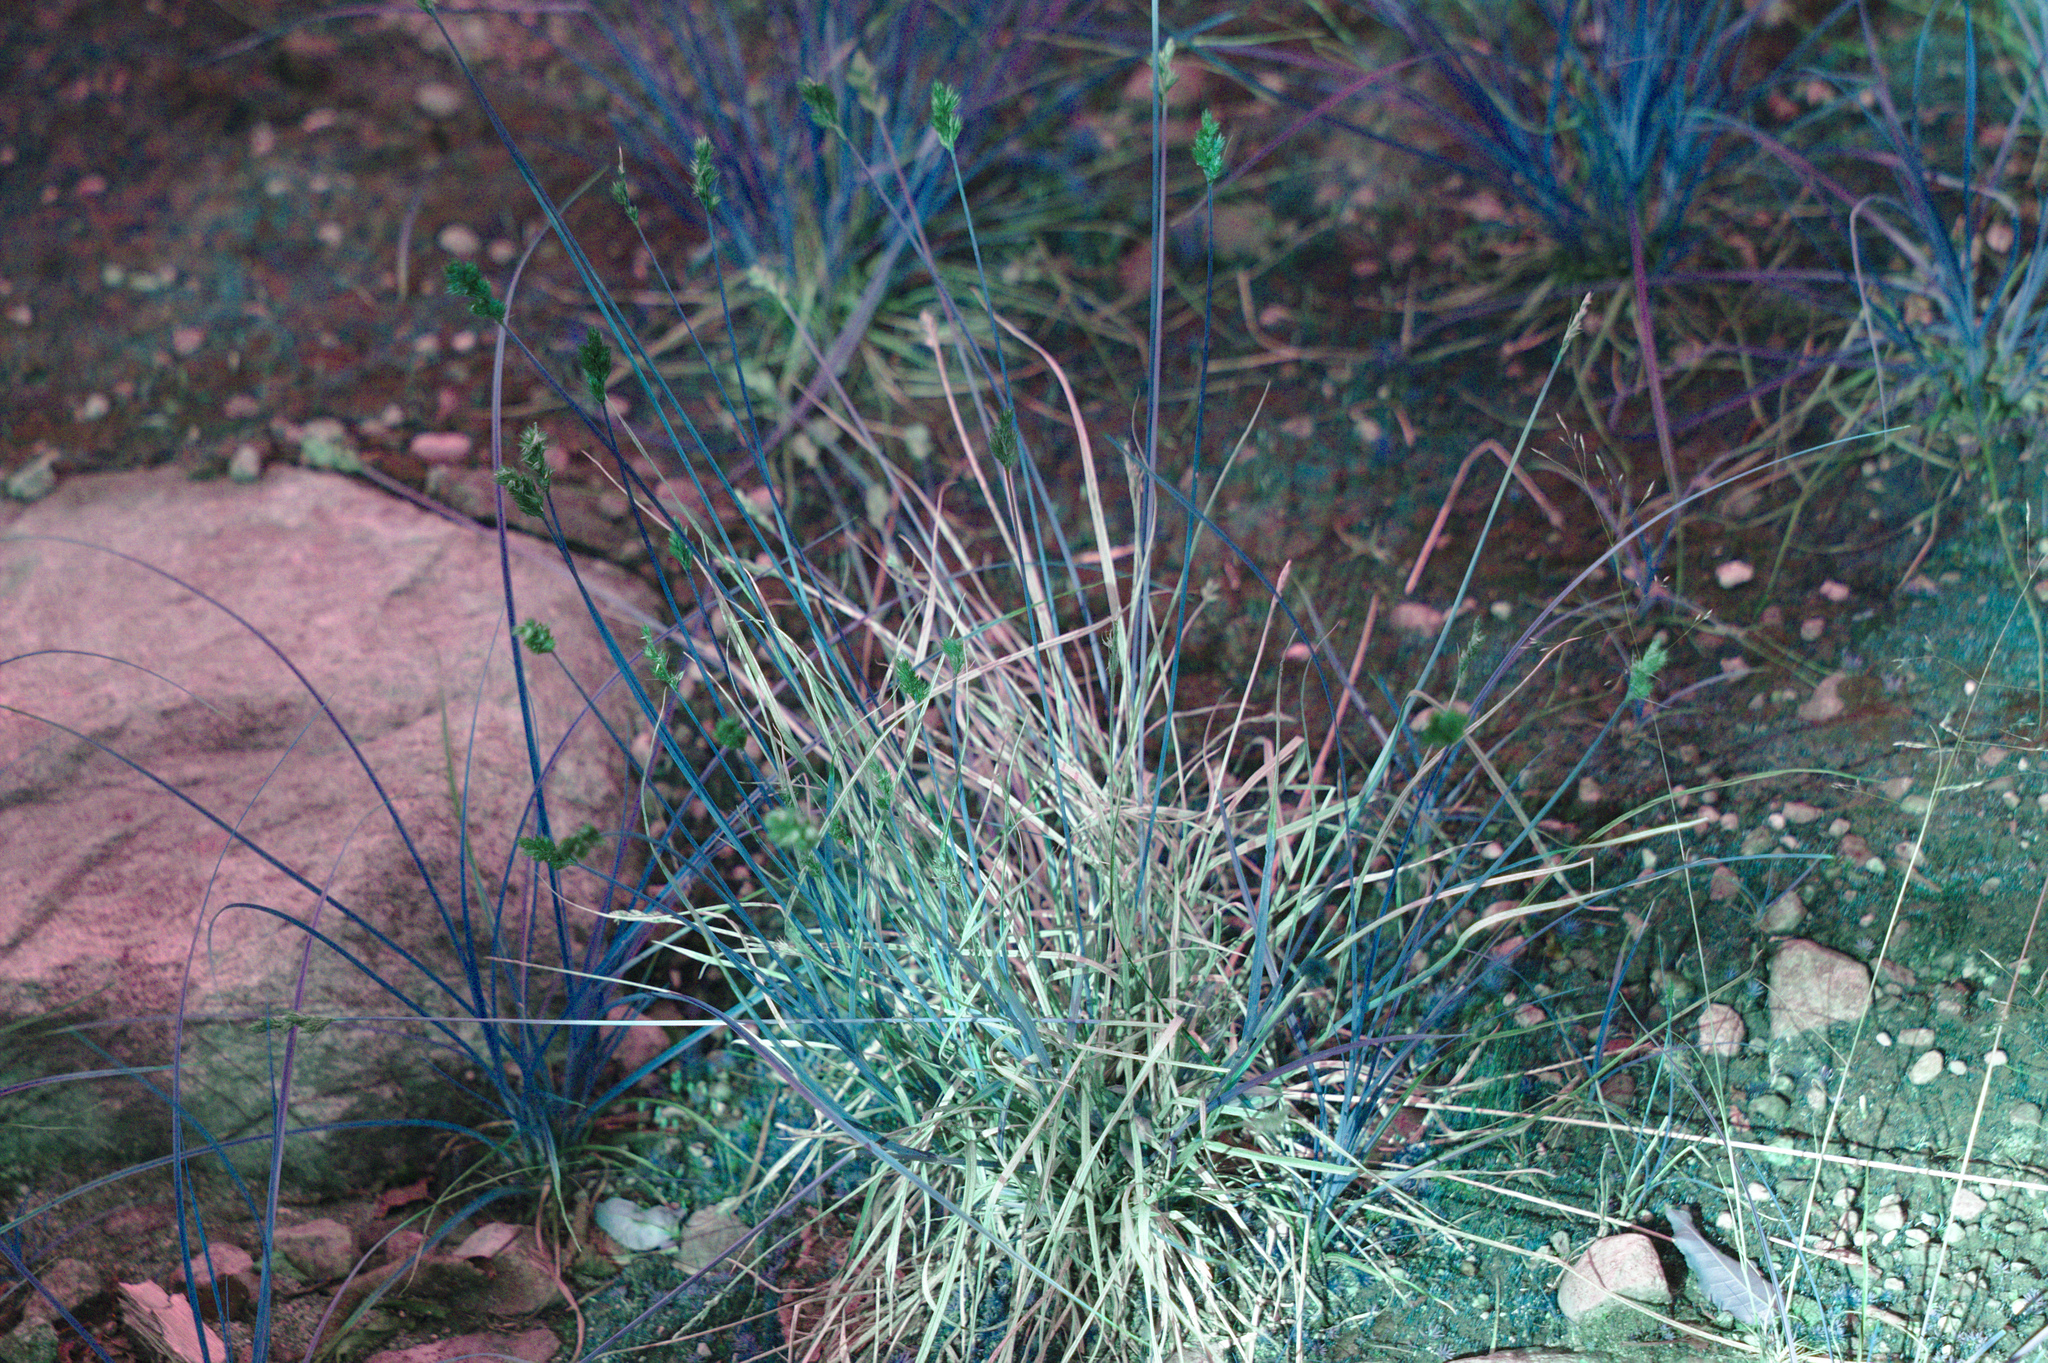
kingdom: Plantae
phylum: Tracheophyta
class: Liliopsida
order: Poales
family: Cyperaceae
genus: Carex
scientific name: Carex crawfordii
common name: Crawford's sedge
